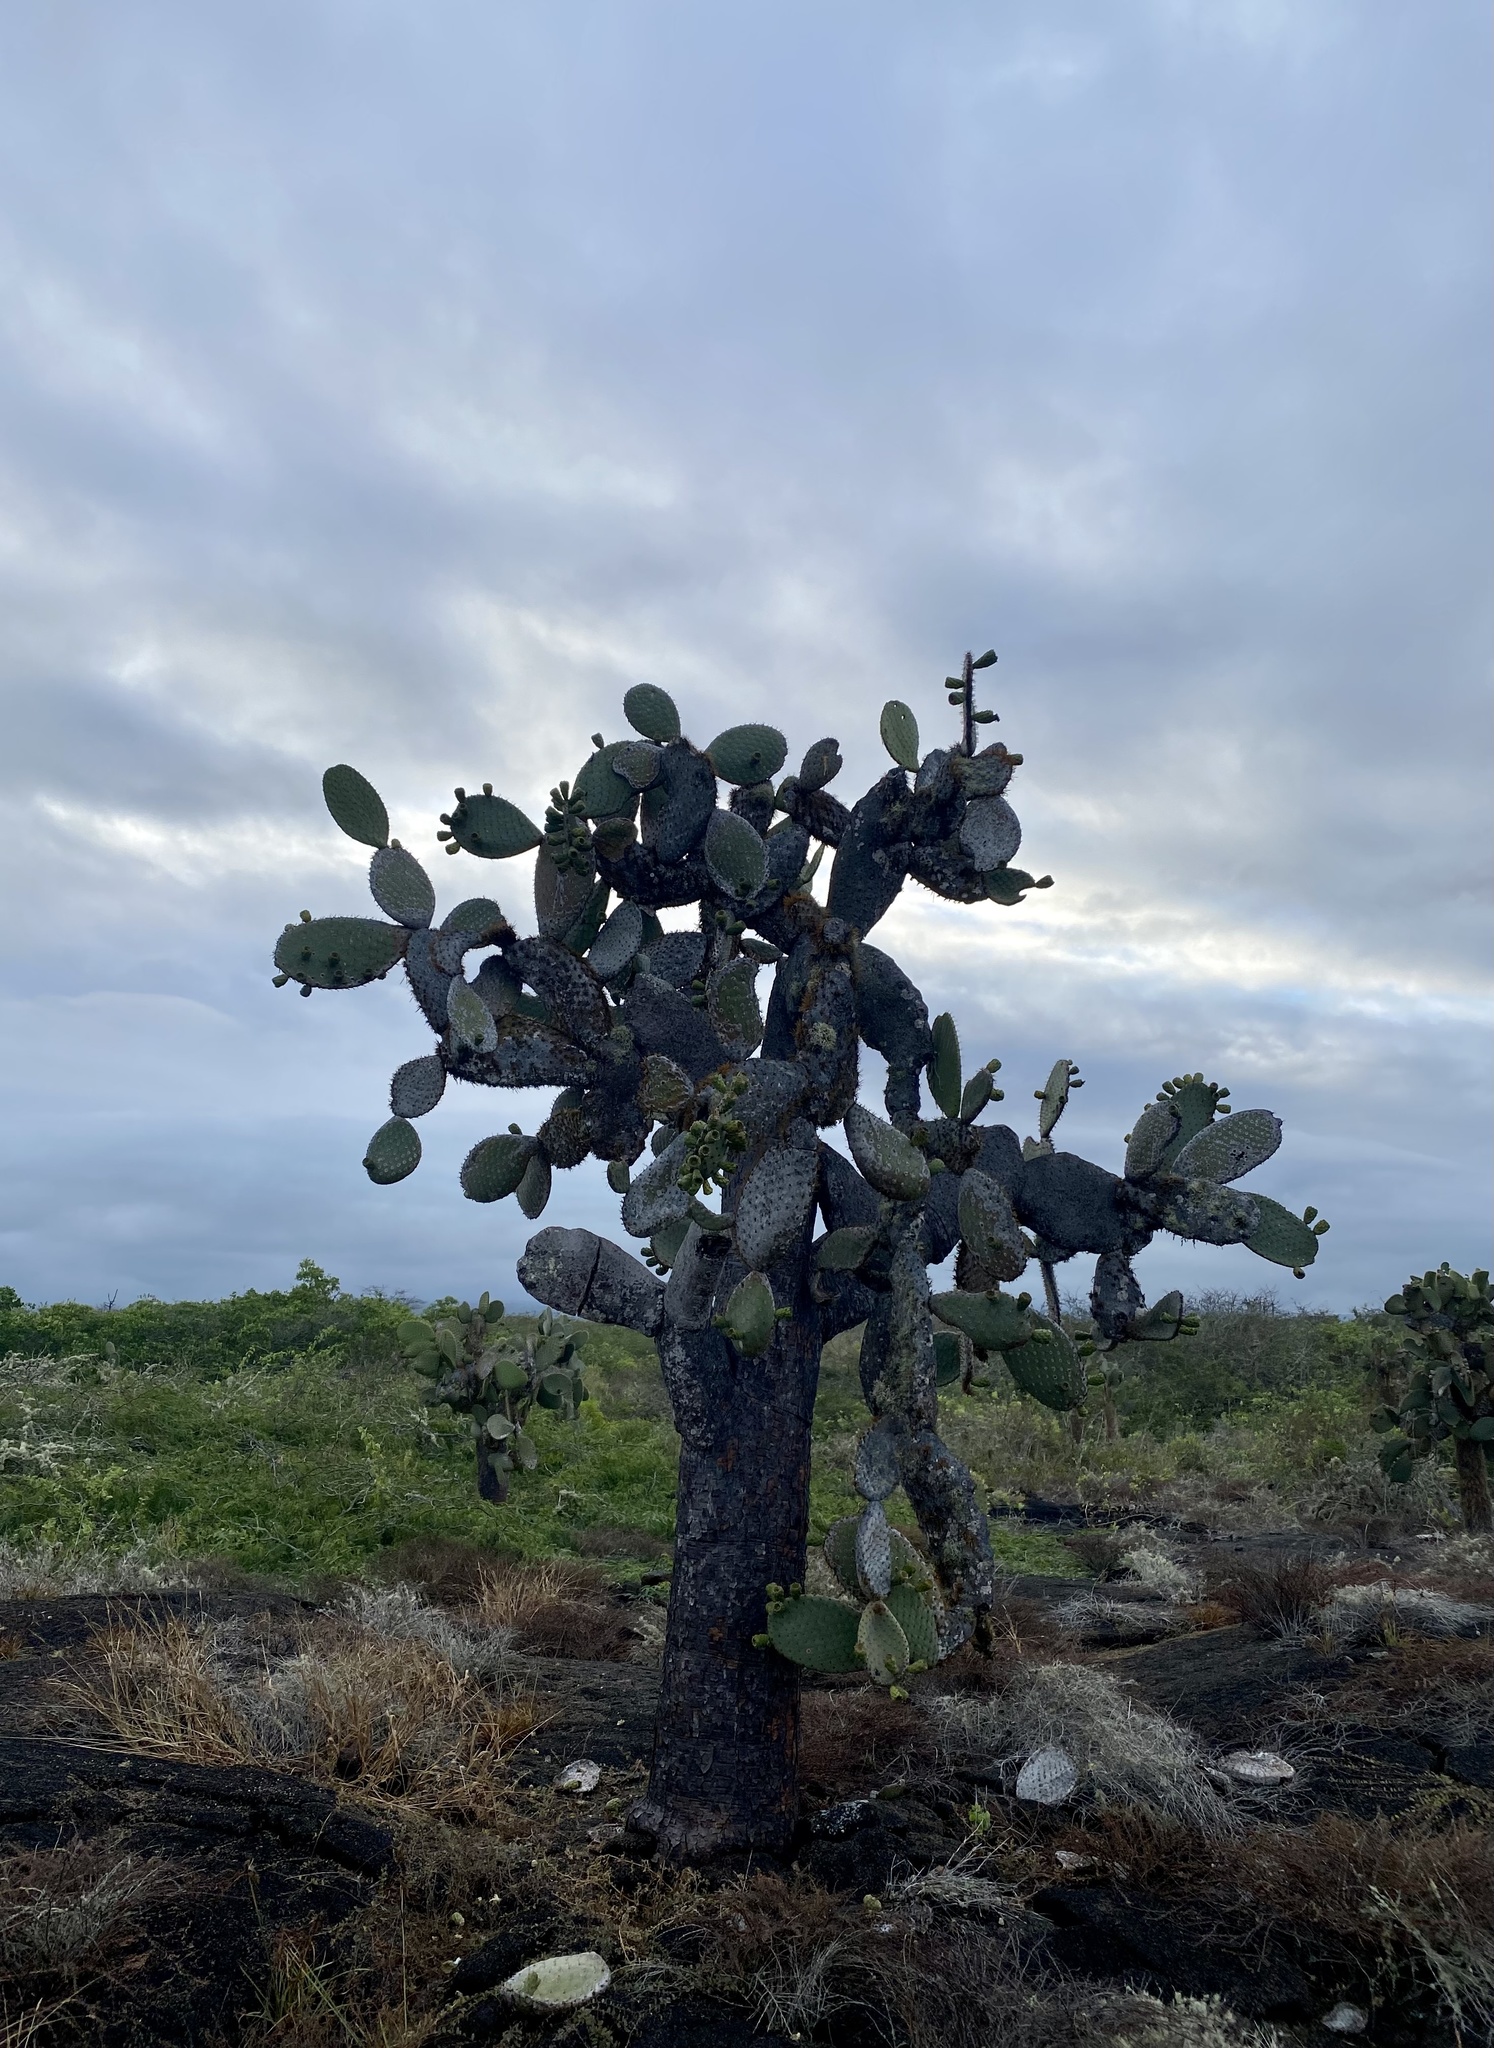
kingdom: Plantae
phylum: Tracheophyta
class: Magnoliopsida
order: Caryophyllales
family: Cactaceae
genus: Opuntia
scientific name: Opuntia galapageia
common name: Galápagos prickly pear
